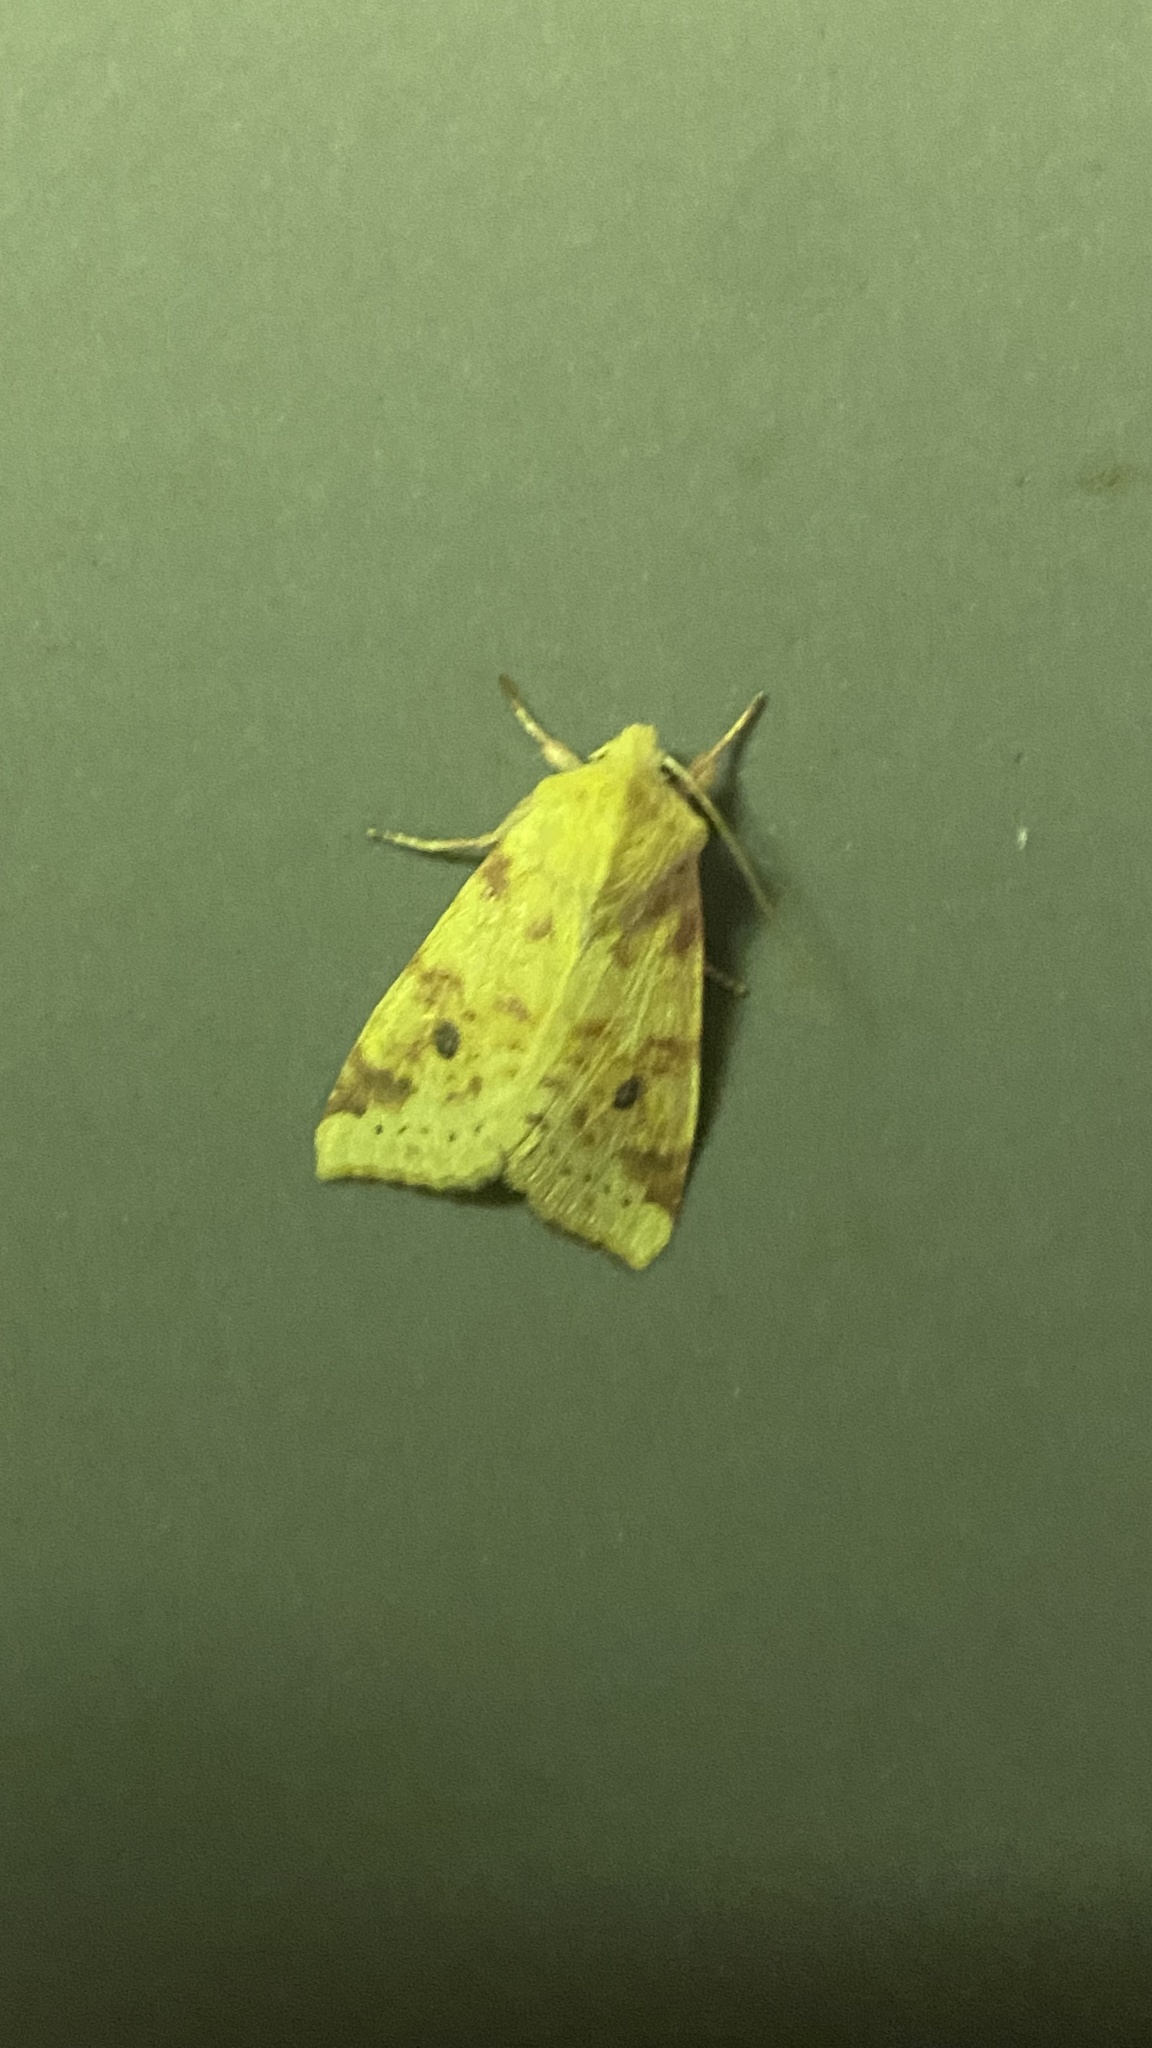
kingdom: Animalia
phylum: Arthropoda
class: Insecta
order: Lepidoptera
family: Noctuidae
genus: Xanthia
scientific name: Xanthia icteritia
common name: The sallow
